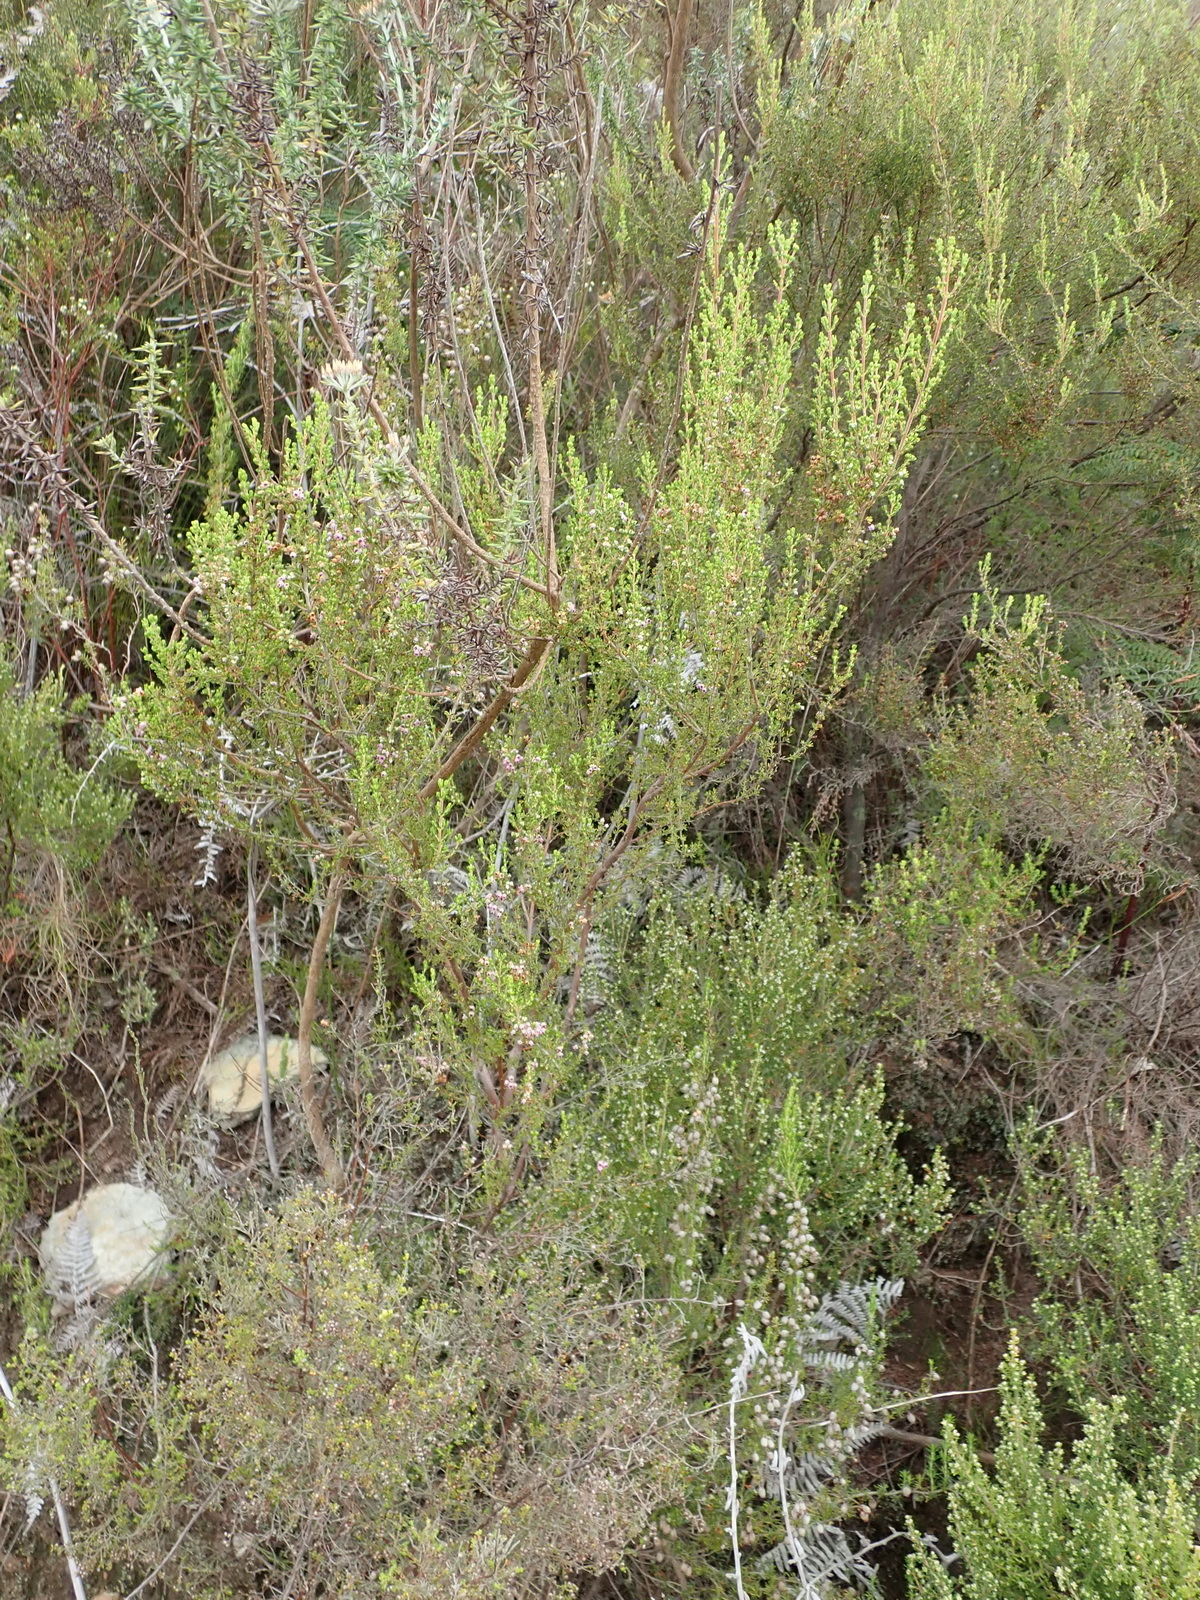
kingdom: Plantae
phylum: Tracheophyta
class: Magnoliopsida
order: Ericales
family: Ericaceae
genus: Erica
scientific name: Erica peltata
